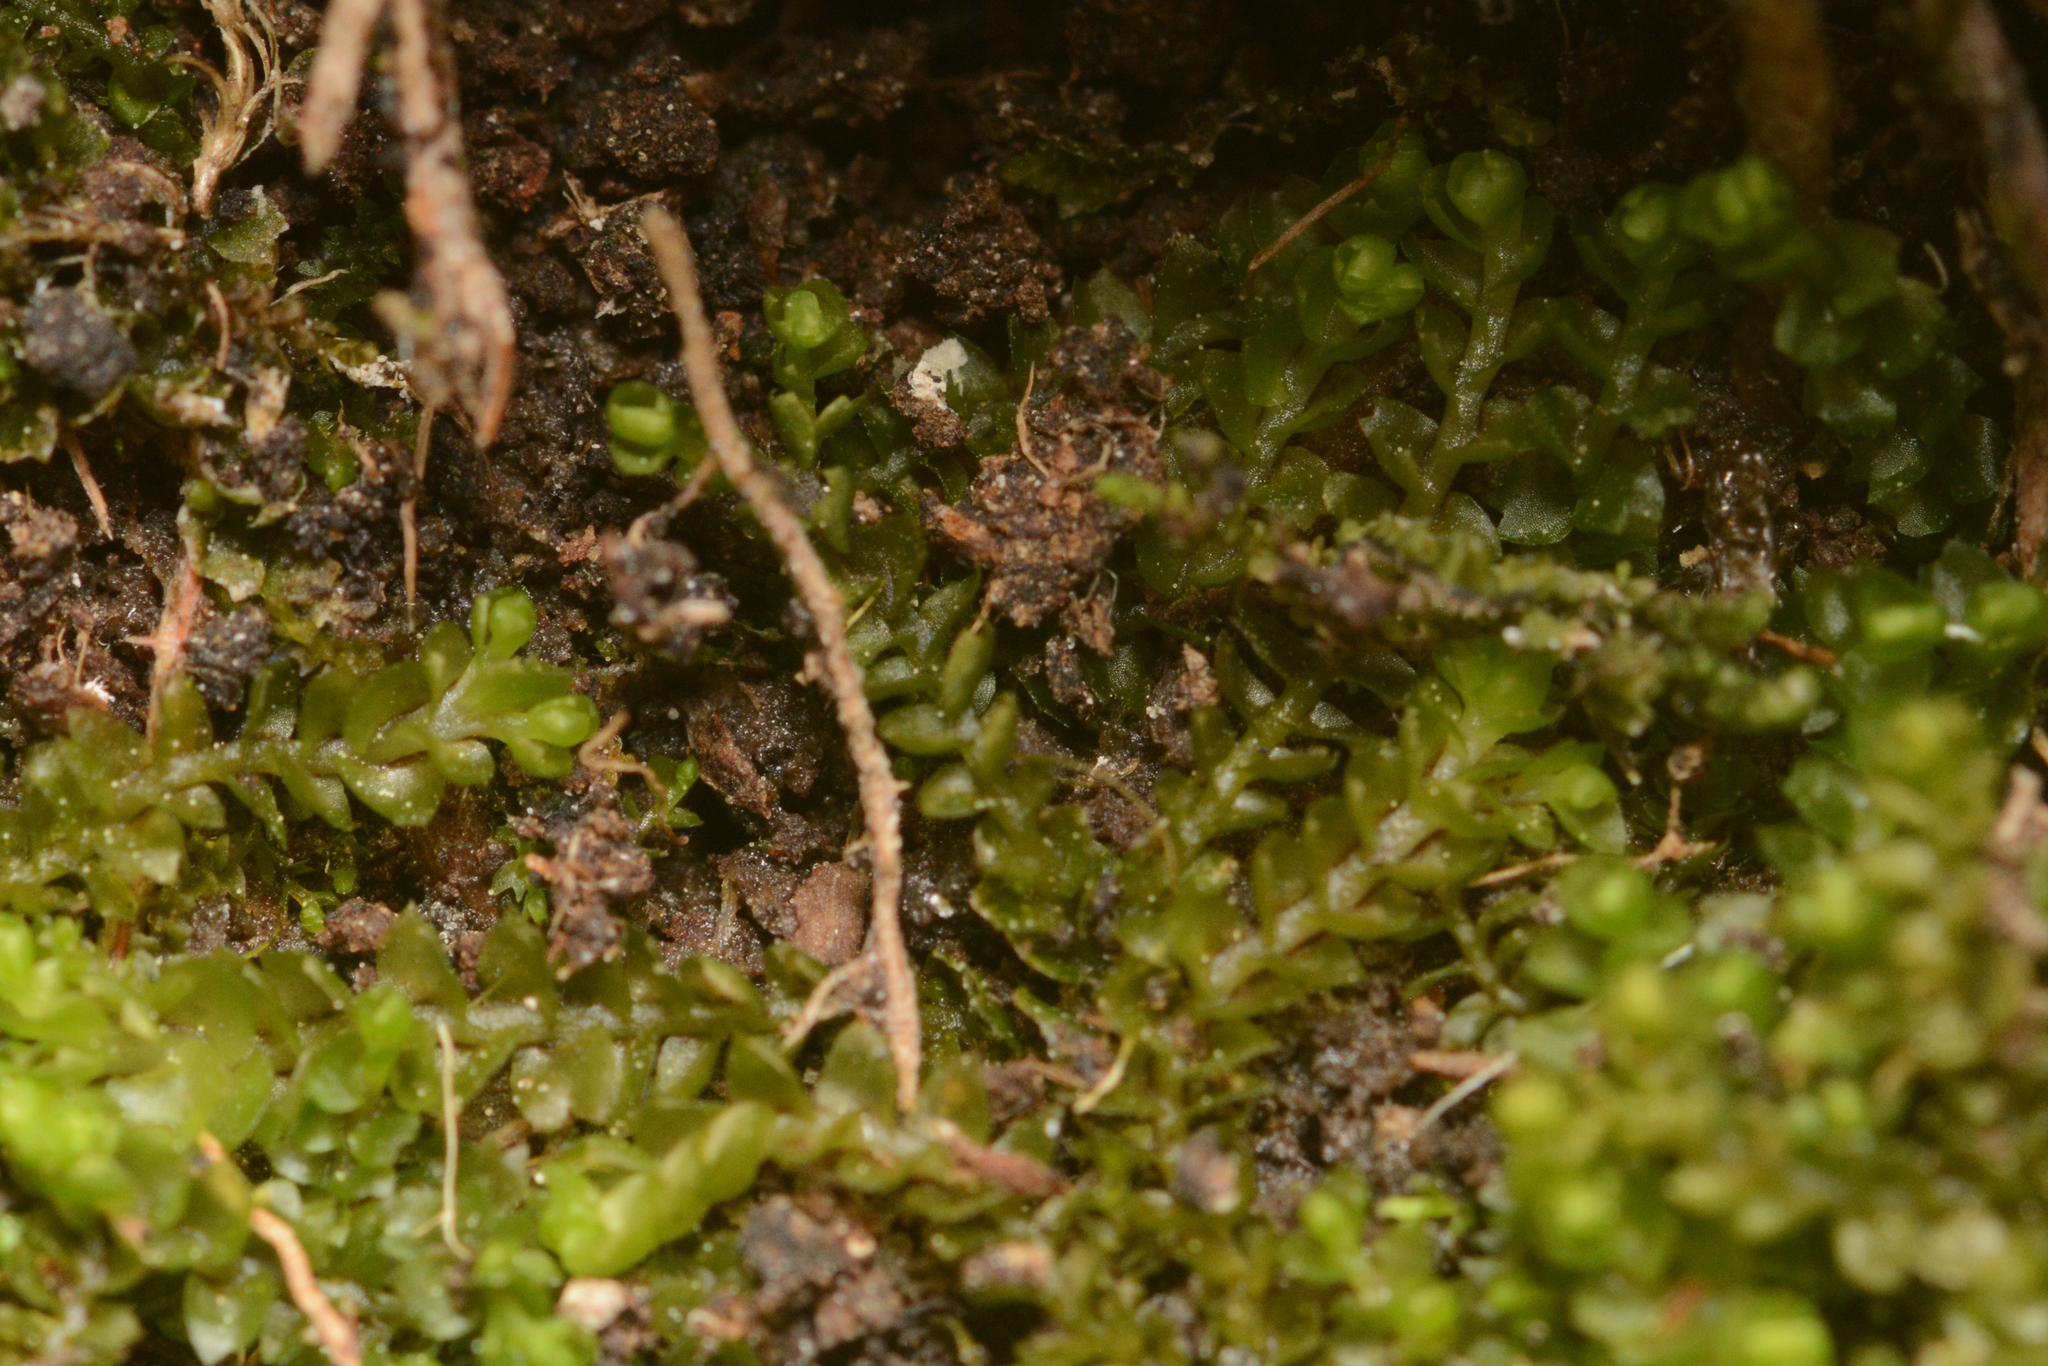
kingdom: Plantae
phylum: Marchantiophyta
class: Jungermanniopsida
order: Jungermanniales
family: Harpanthaceae
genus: Harpanthus
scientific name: Harpanthus flotovianus
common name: Great mountain flapwort
